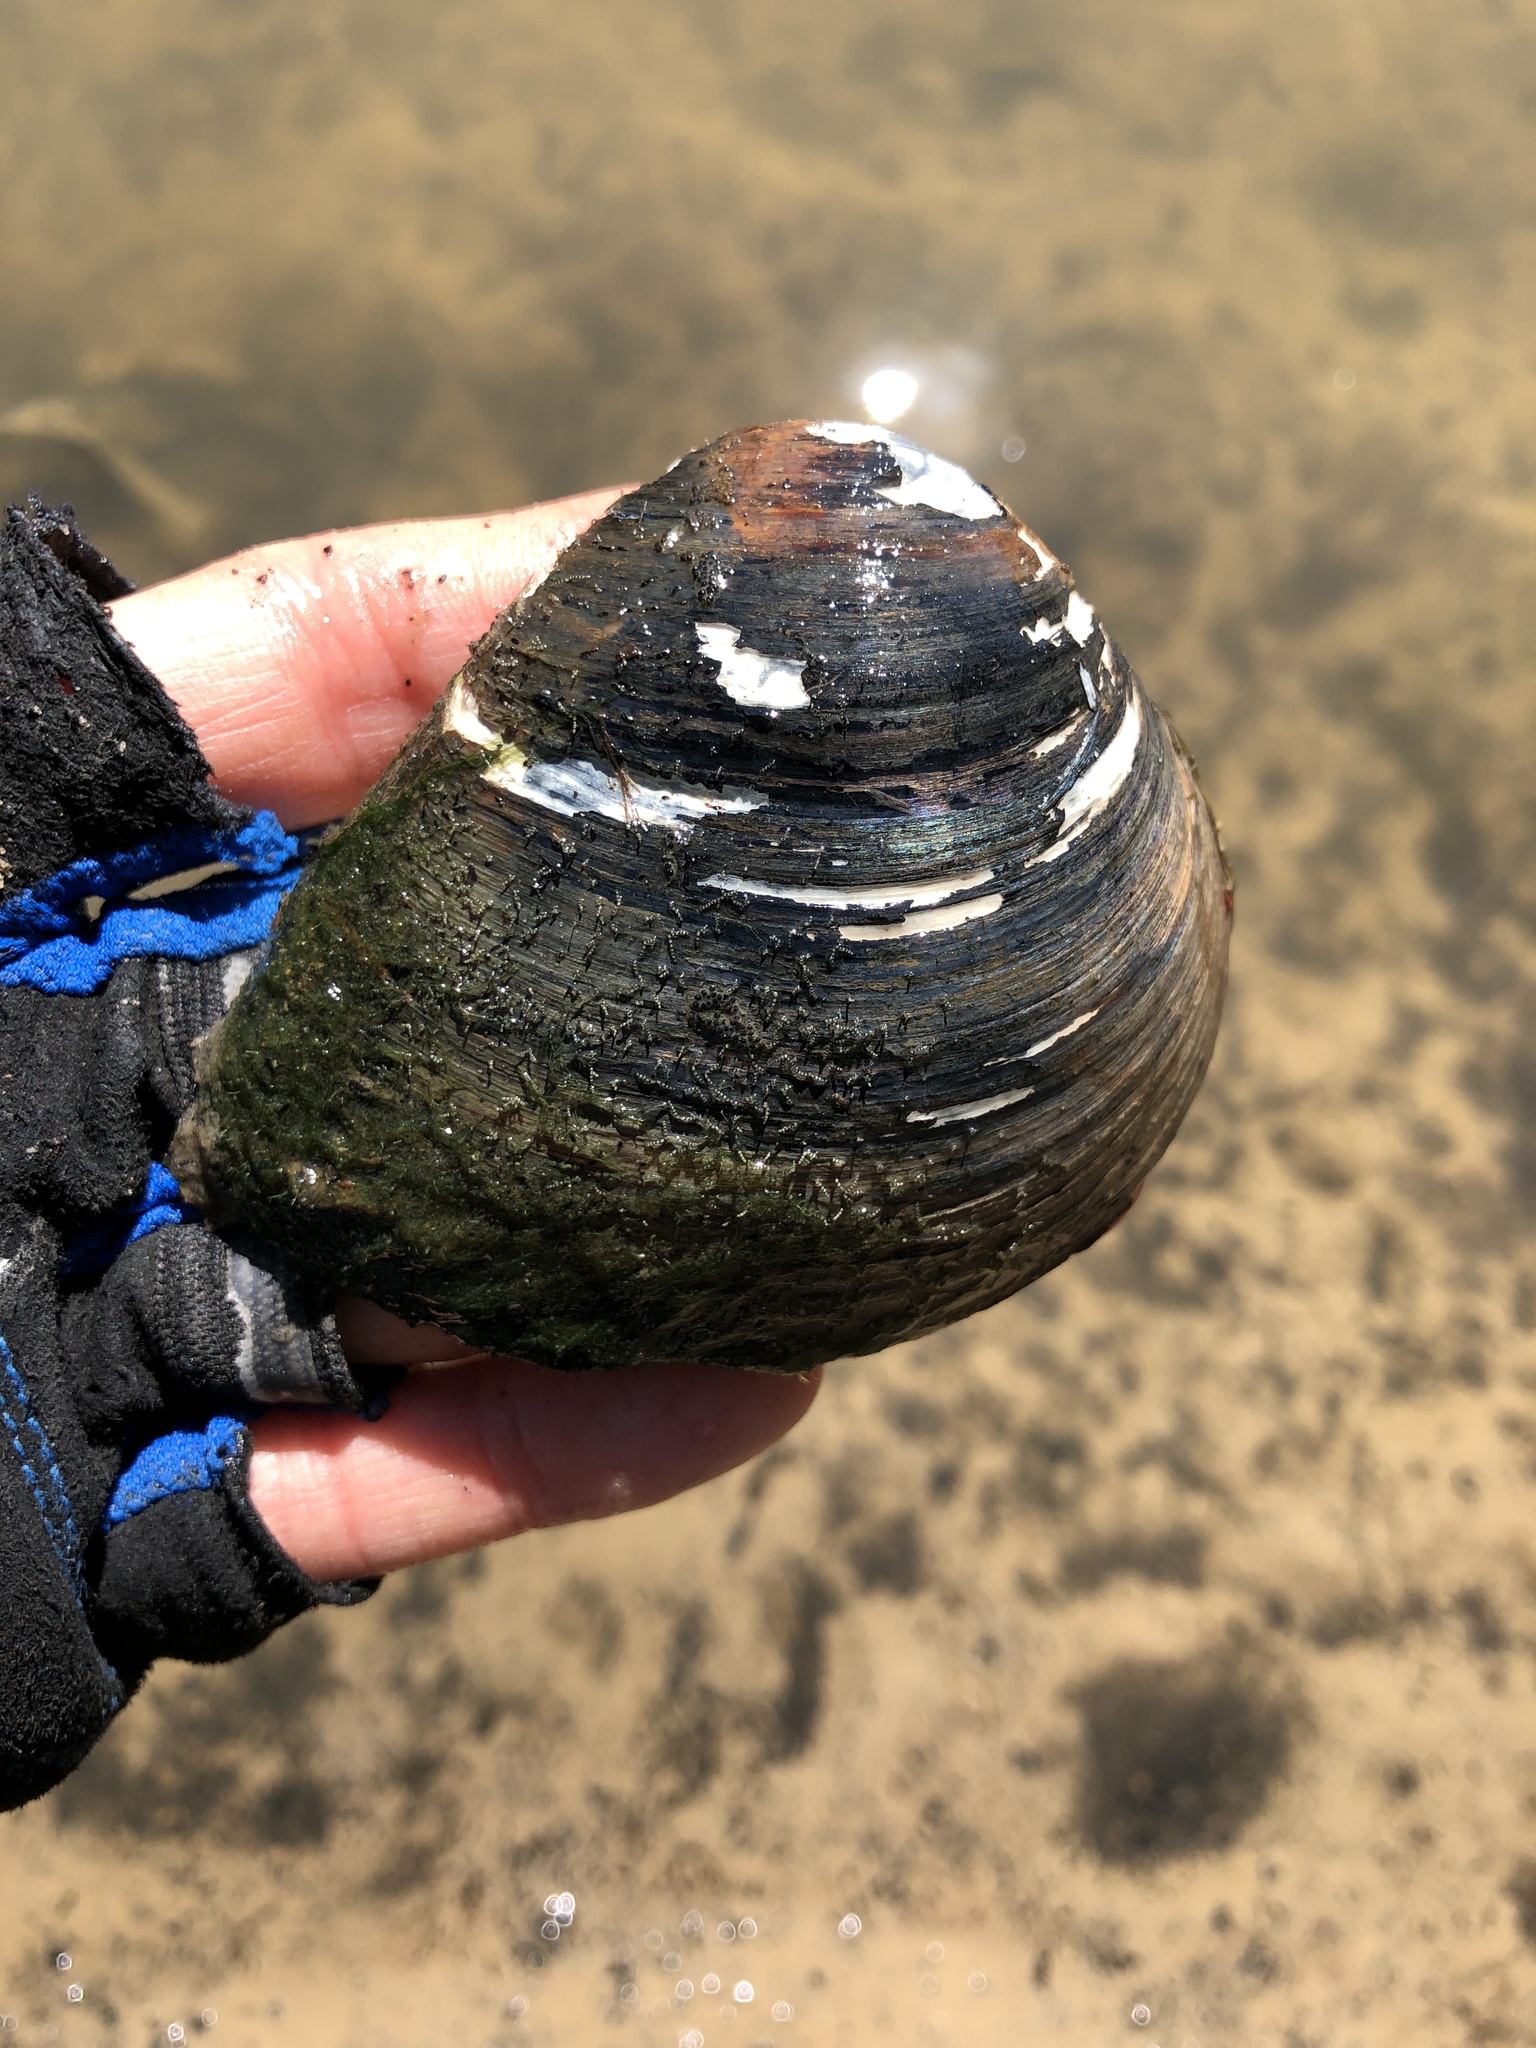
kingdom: Animalia
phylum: Mollusca
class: Bivalvia
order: Venerida
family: Mactridae
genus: Rangia
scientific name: Rangia cuneata
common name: Atlantic rangia
